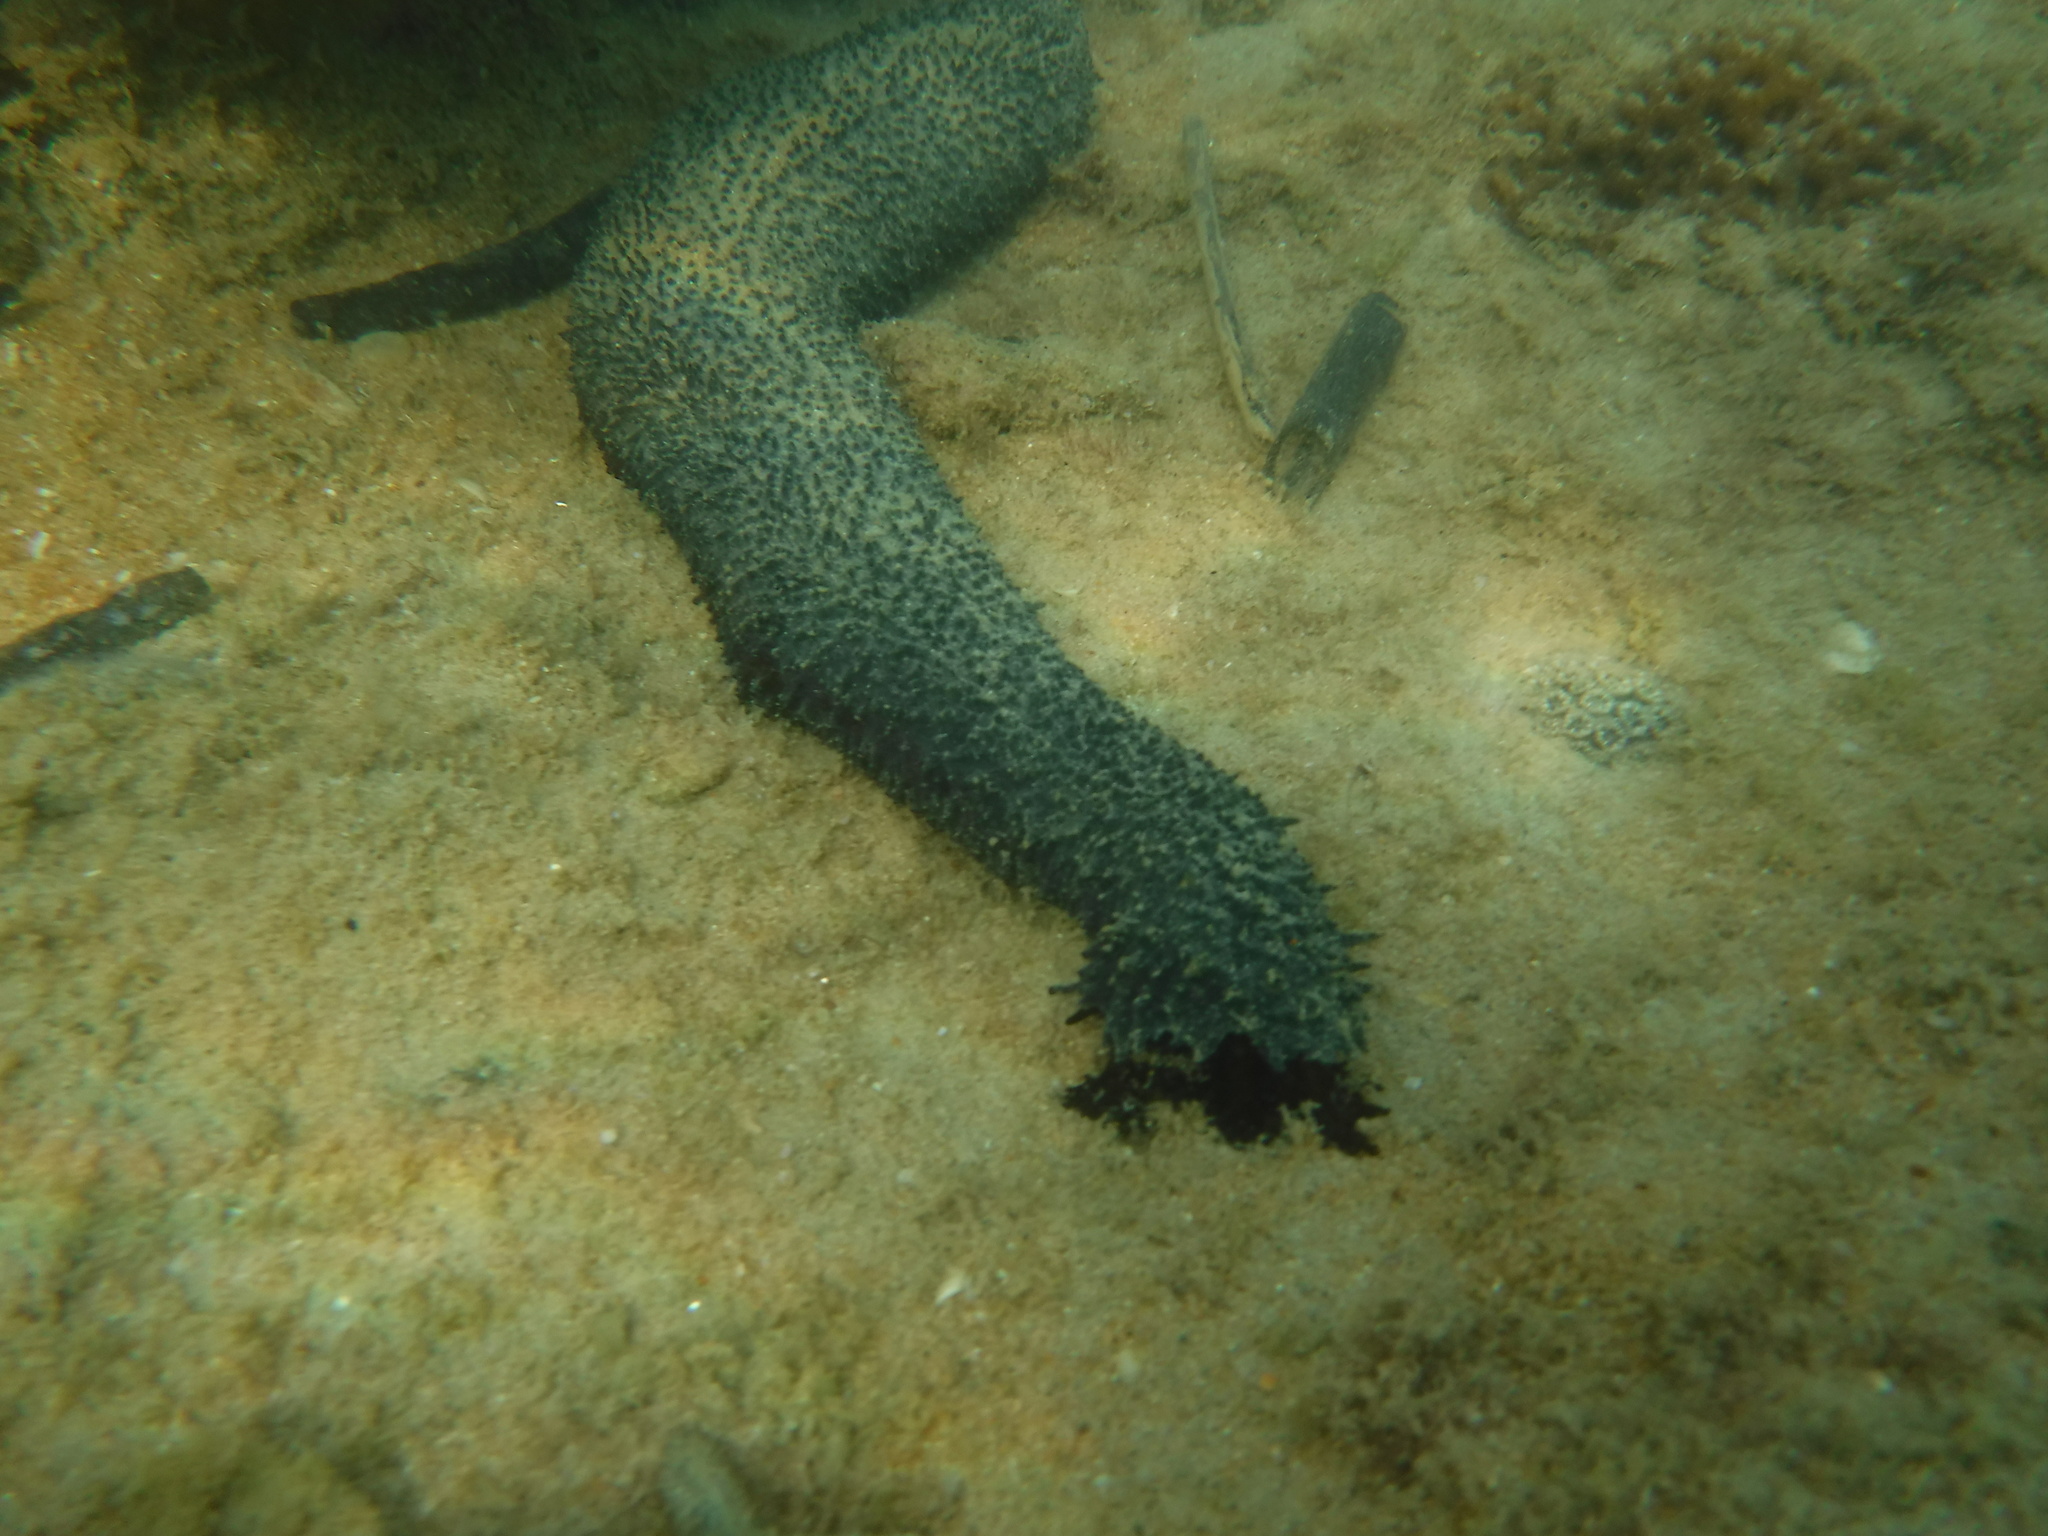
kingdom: Animalia
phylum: Echinodermata
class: Holothuroidea
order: Holothuriida
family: Holothuriidae
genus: Holothuria
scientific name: Holothuria leucospilota
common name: White thread fish
